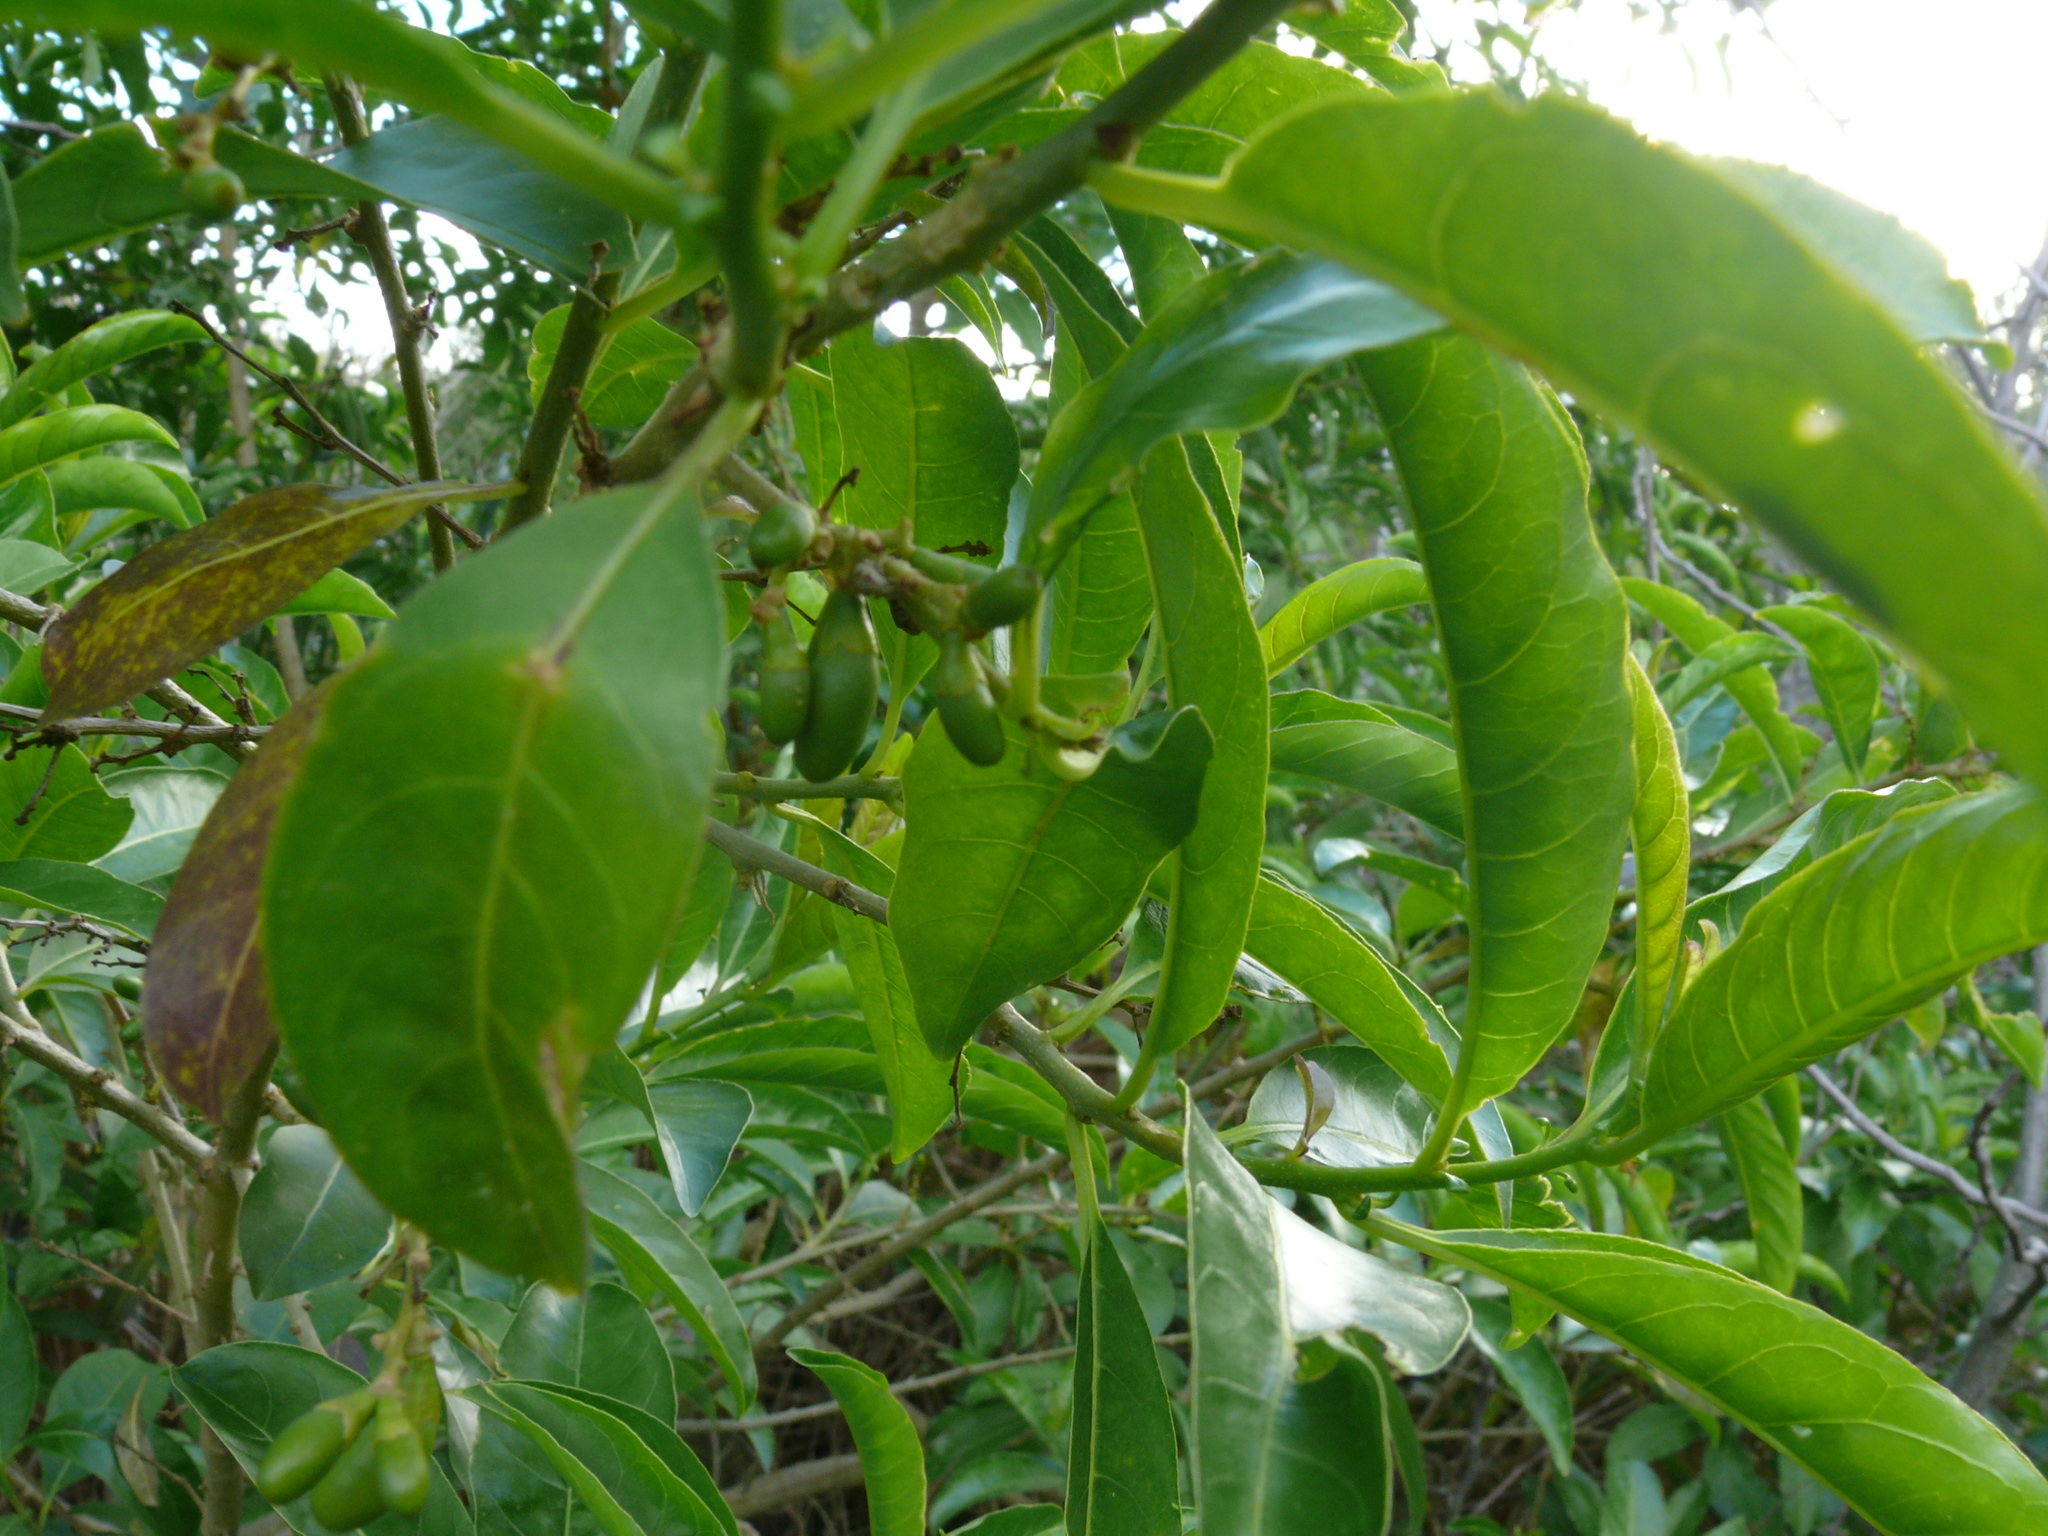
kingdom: Plantae
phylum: Tracheophyta
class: Magnoliopsida
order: Solanales
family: Solanaceae
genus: Cestrum
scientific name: Cestrum laevigatum
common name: Inkberry
